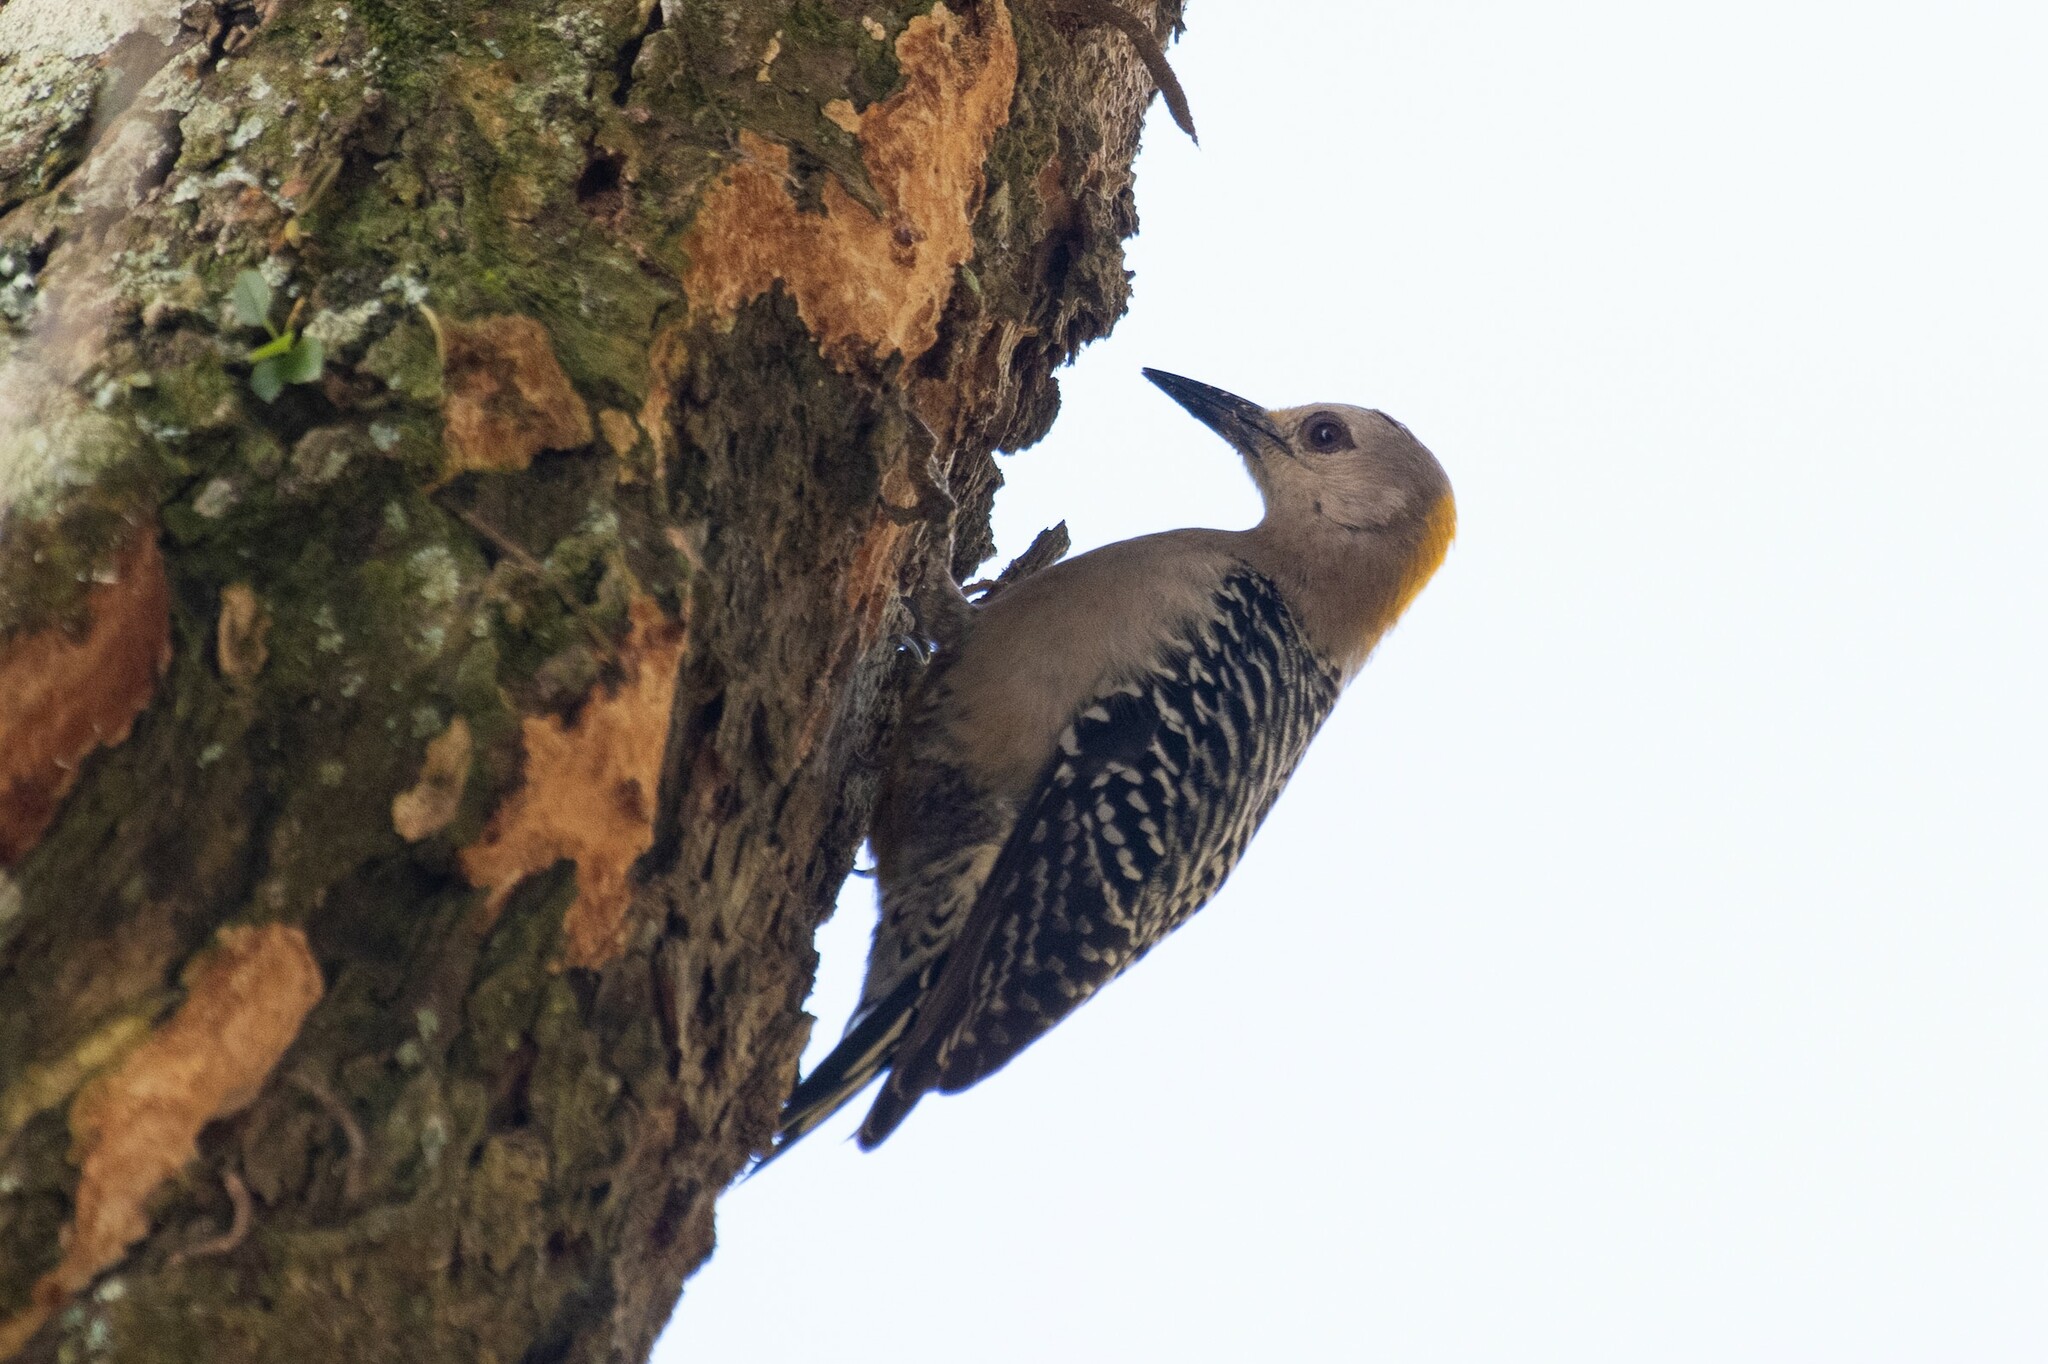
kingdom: Animalia
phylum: Chordata
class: Aves
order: Piciformes
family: Picidae
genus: Melanerpes
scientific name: Melanerpes hoffmannii
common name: Hoffmann's woodpecker
